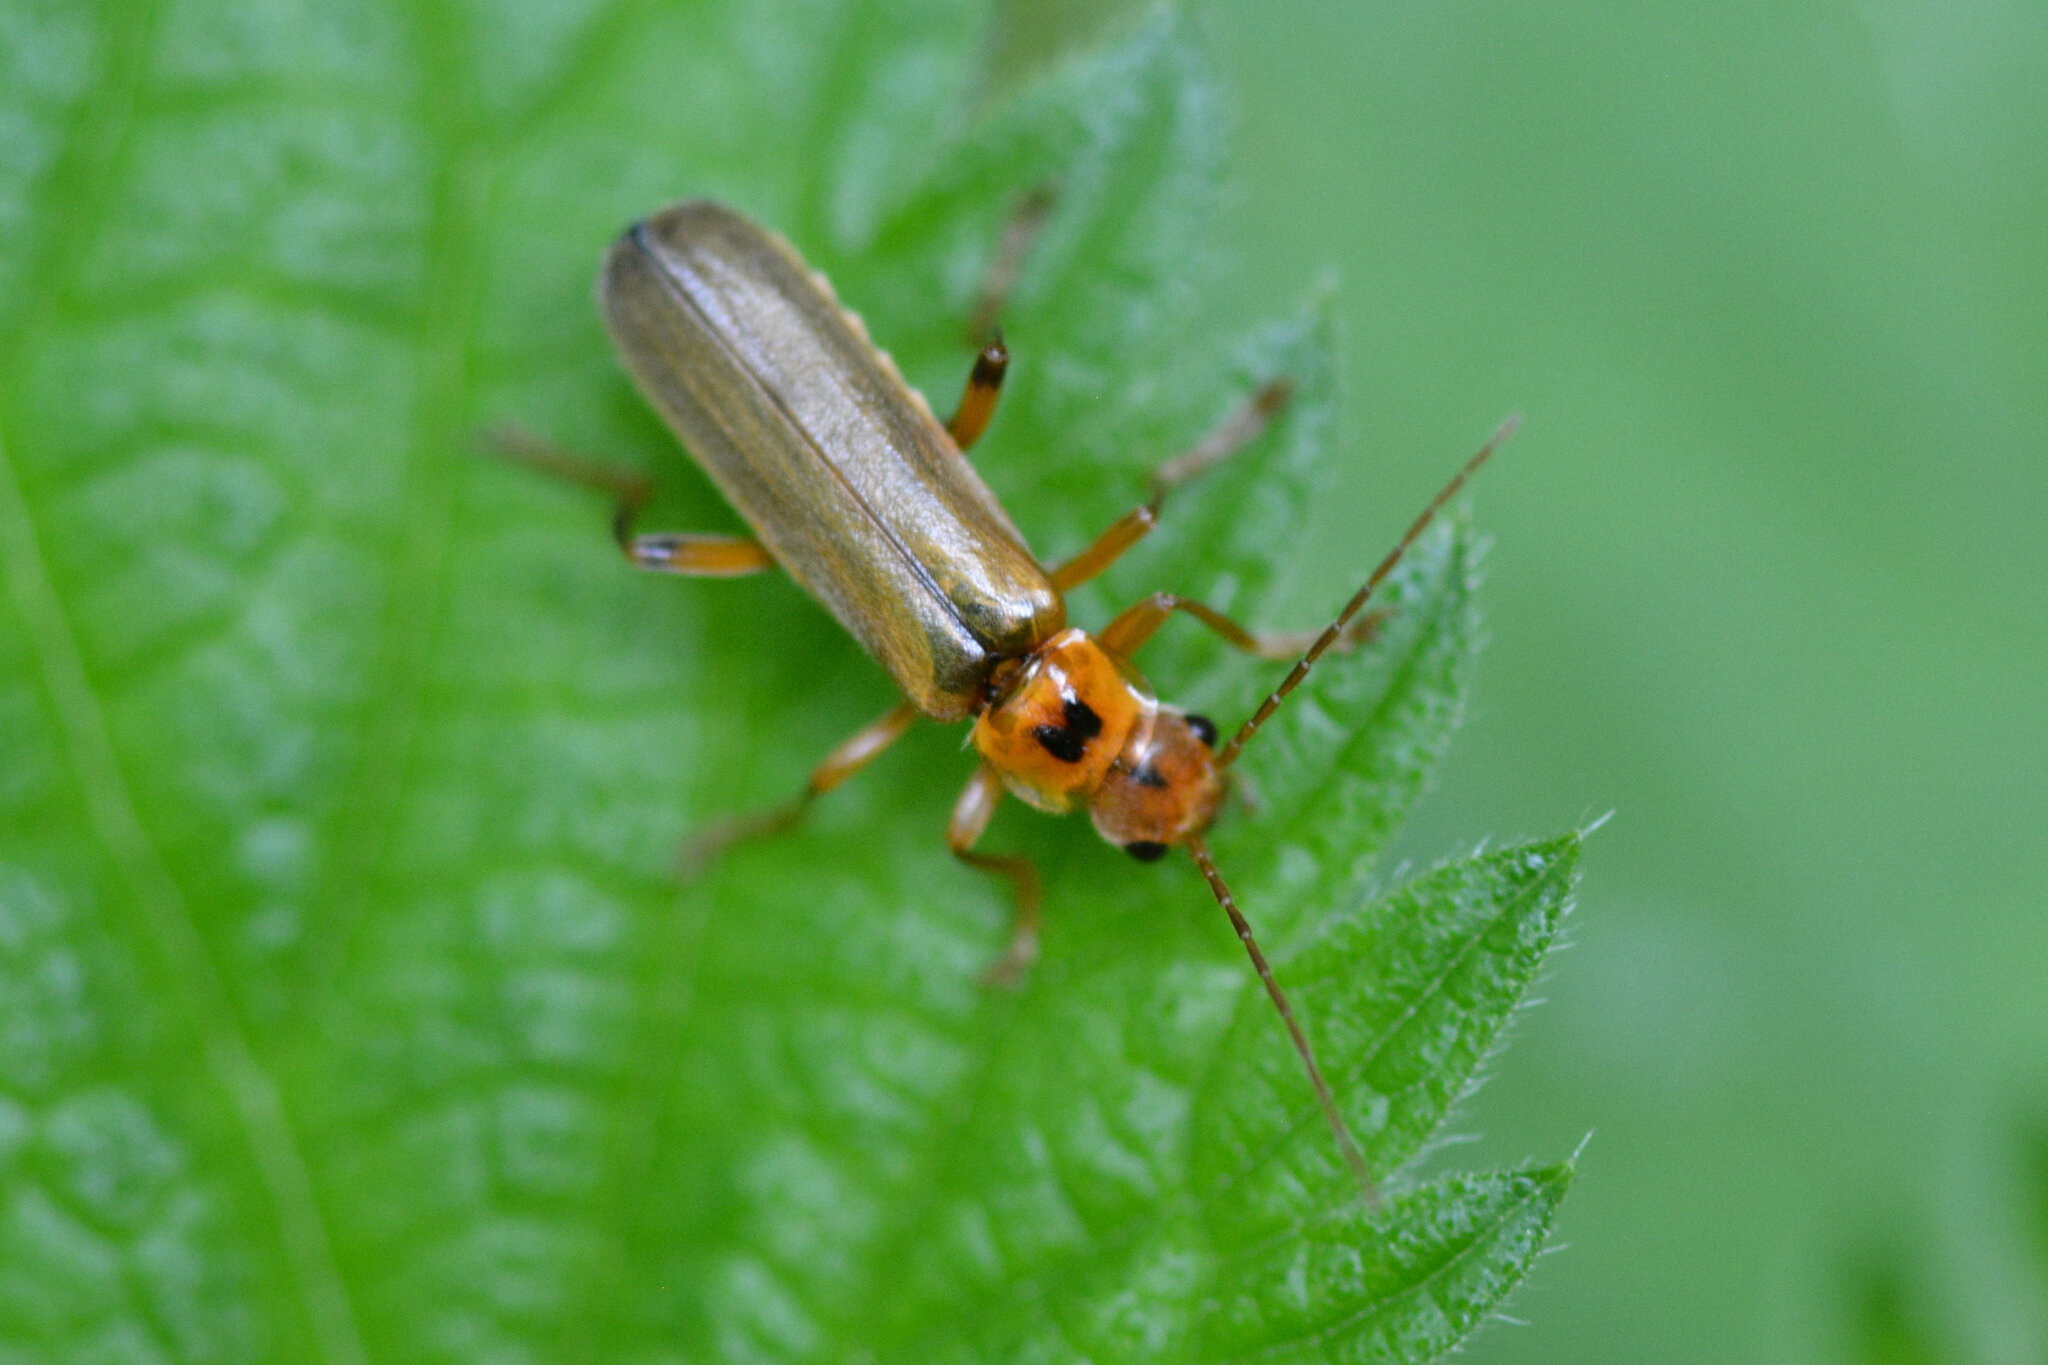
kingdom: Animalia
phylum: Arthropoda
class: Insecta
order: Coleoptera
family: Cantharidae
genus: Metacantharis
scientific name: Metacantharis discoidea
